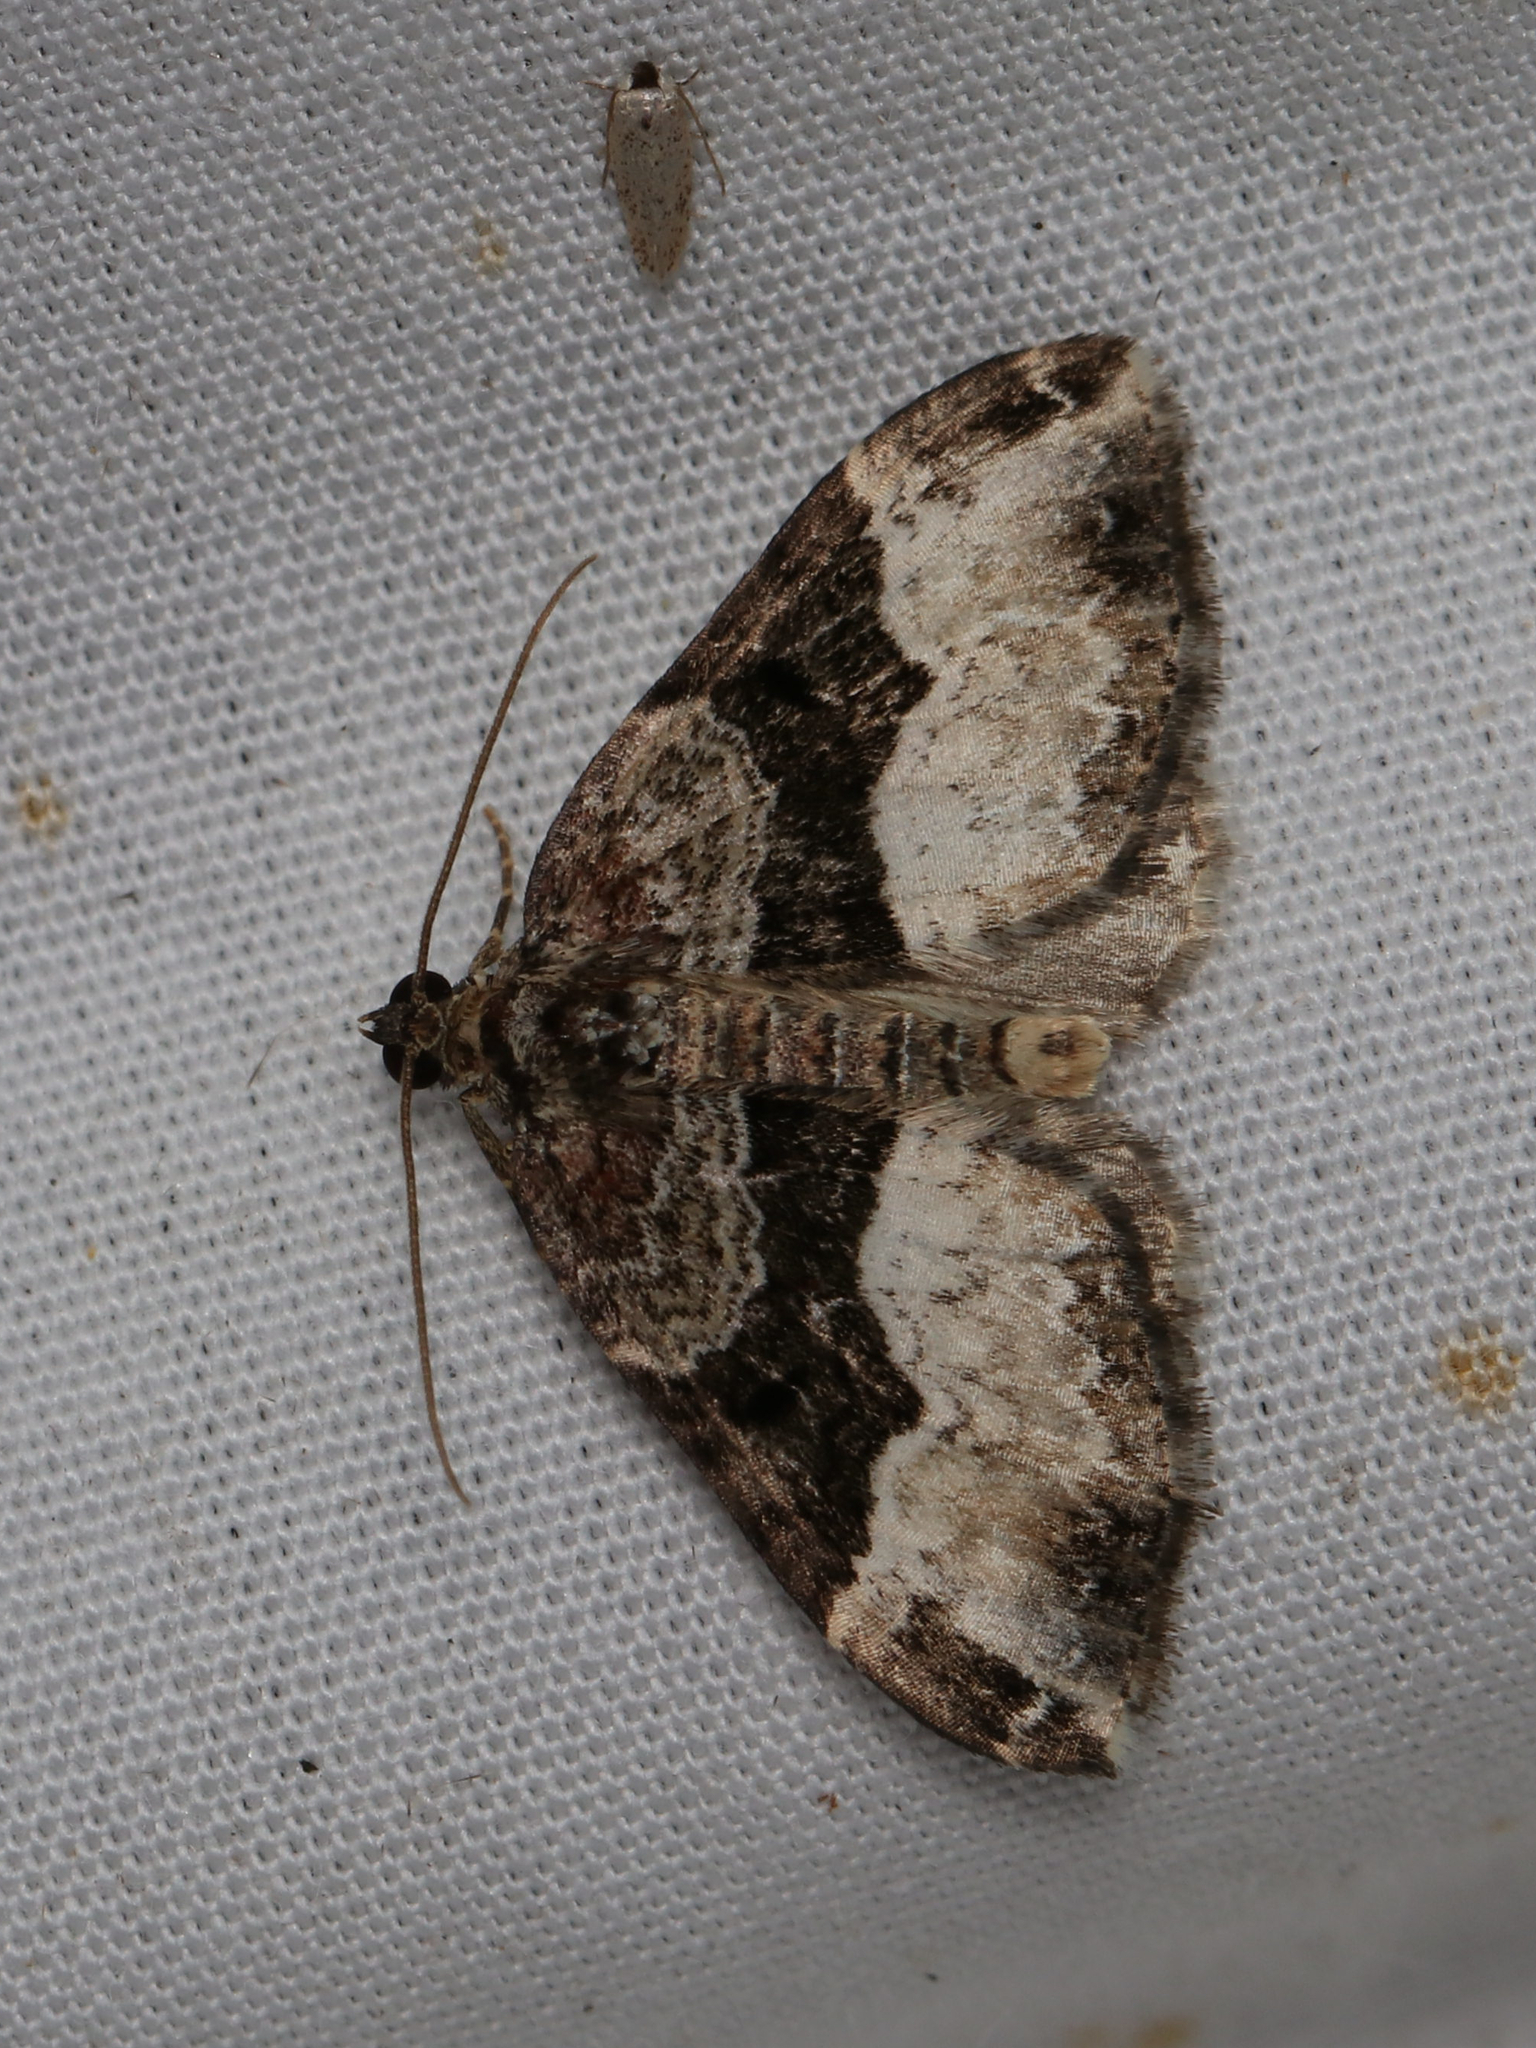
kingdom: Animalia
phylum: Arthropoda
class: Insecta
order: Lepidoptera
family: Geometridae
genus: Euphyia
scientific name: Euphyia intermediata
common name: Sharp-angled carpet
